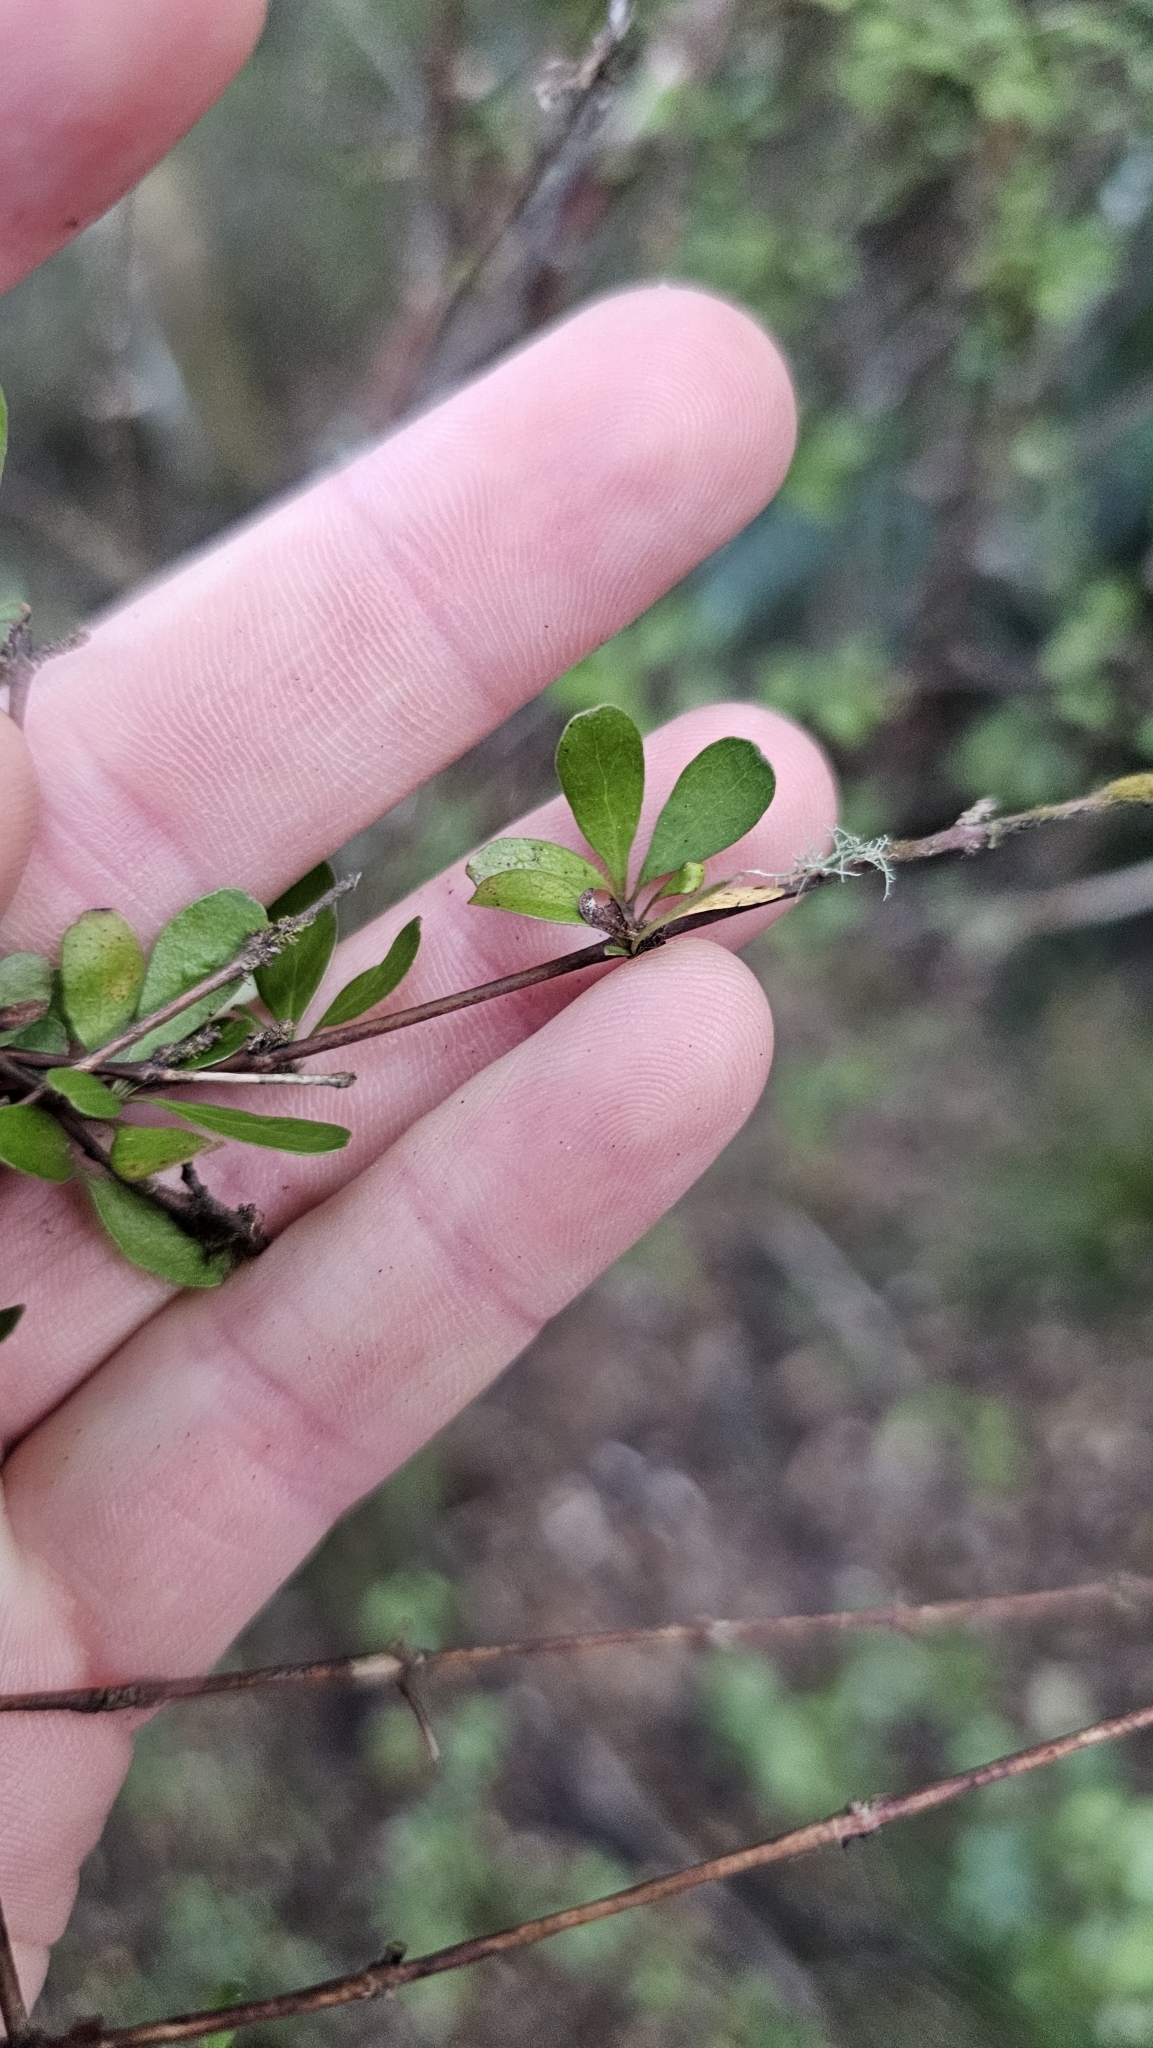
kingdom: Plantae
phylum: Tracheophyta
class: Magnoliopsida
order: Gentianales
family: Rubiaceae
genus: Coprosma
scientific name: Coprosma rigida
